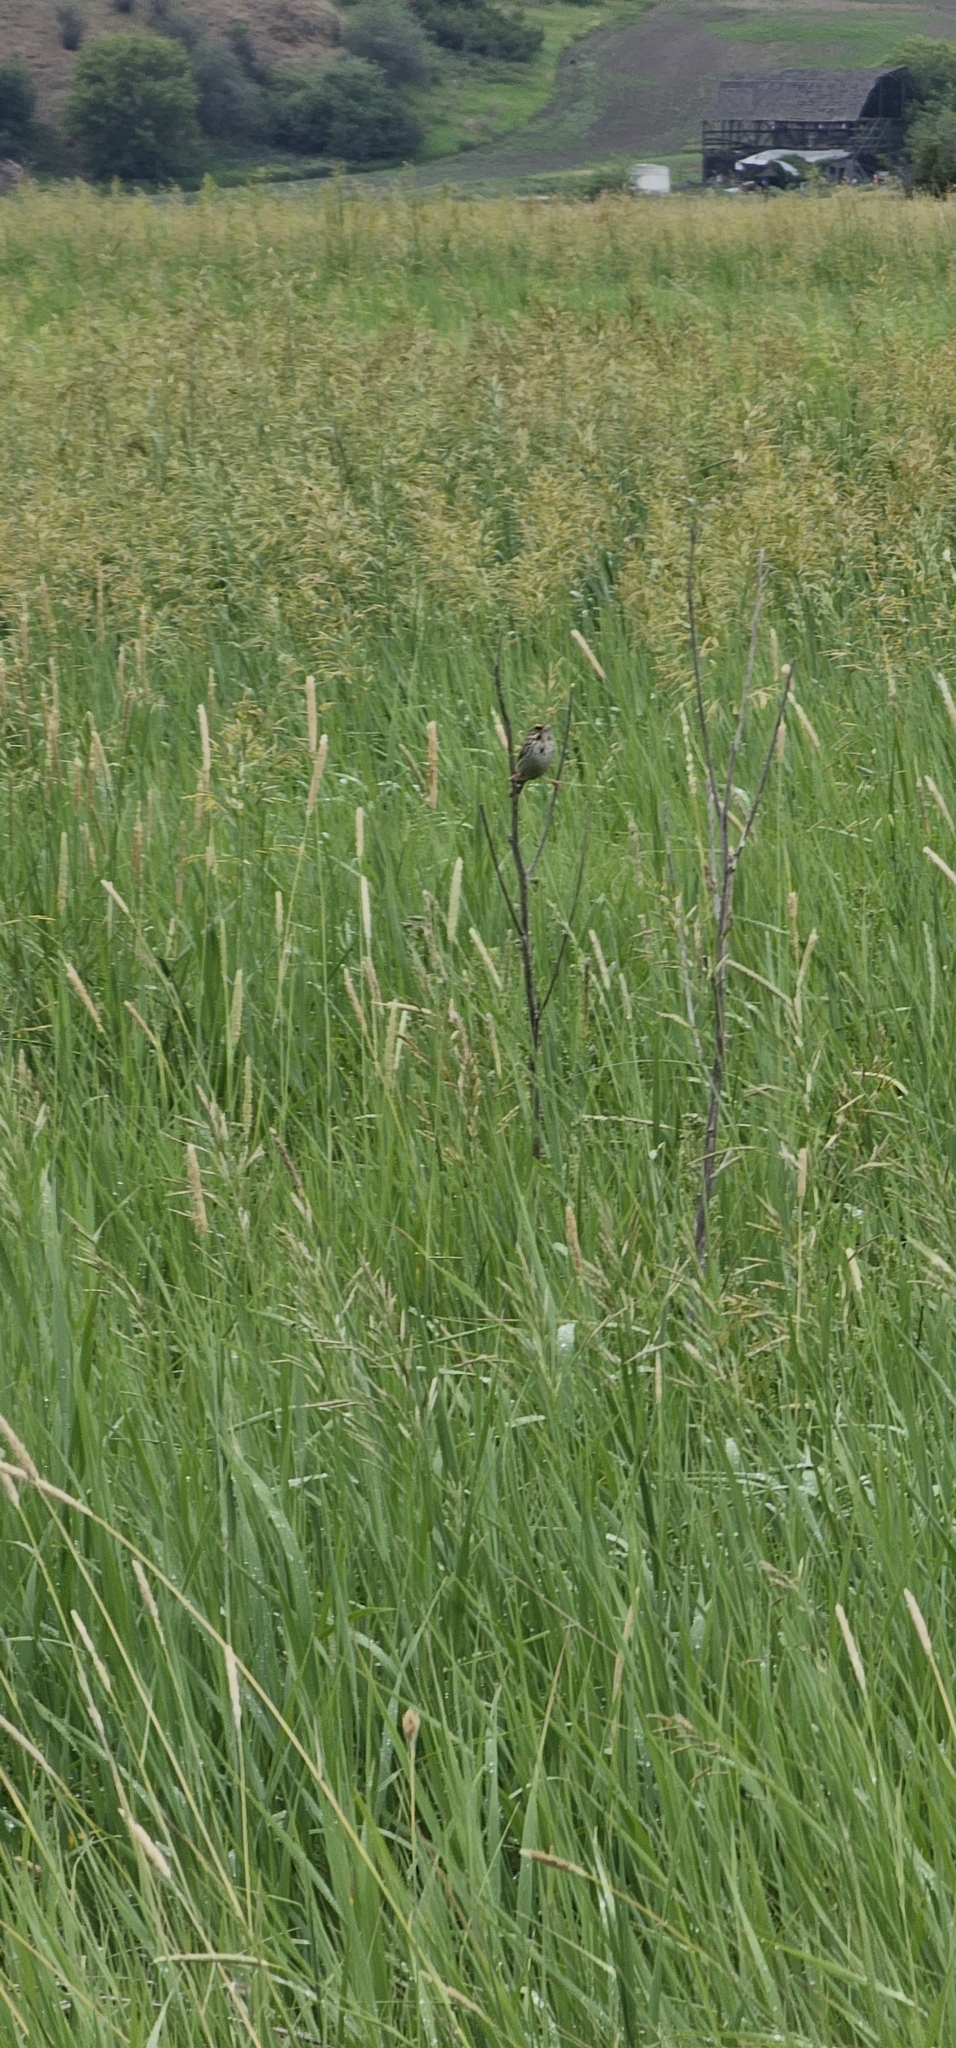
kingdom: Animalia
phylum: Chordata
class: Aves
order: Passeriformes
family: Passerellidae
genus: Passerculus
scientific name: Passerculus sandwichensis
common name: Savannah sparrow
